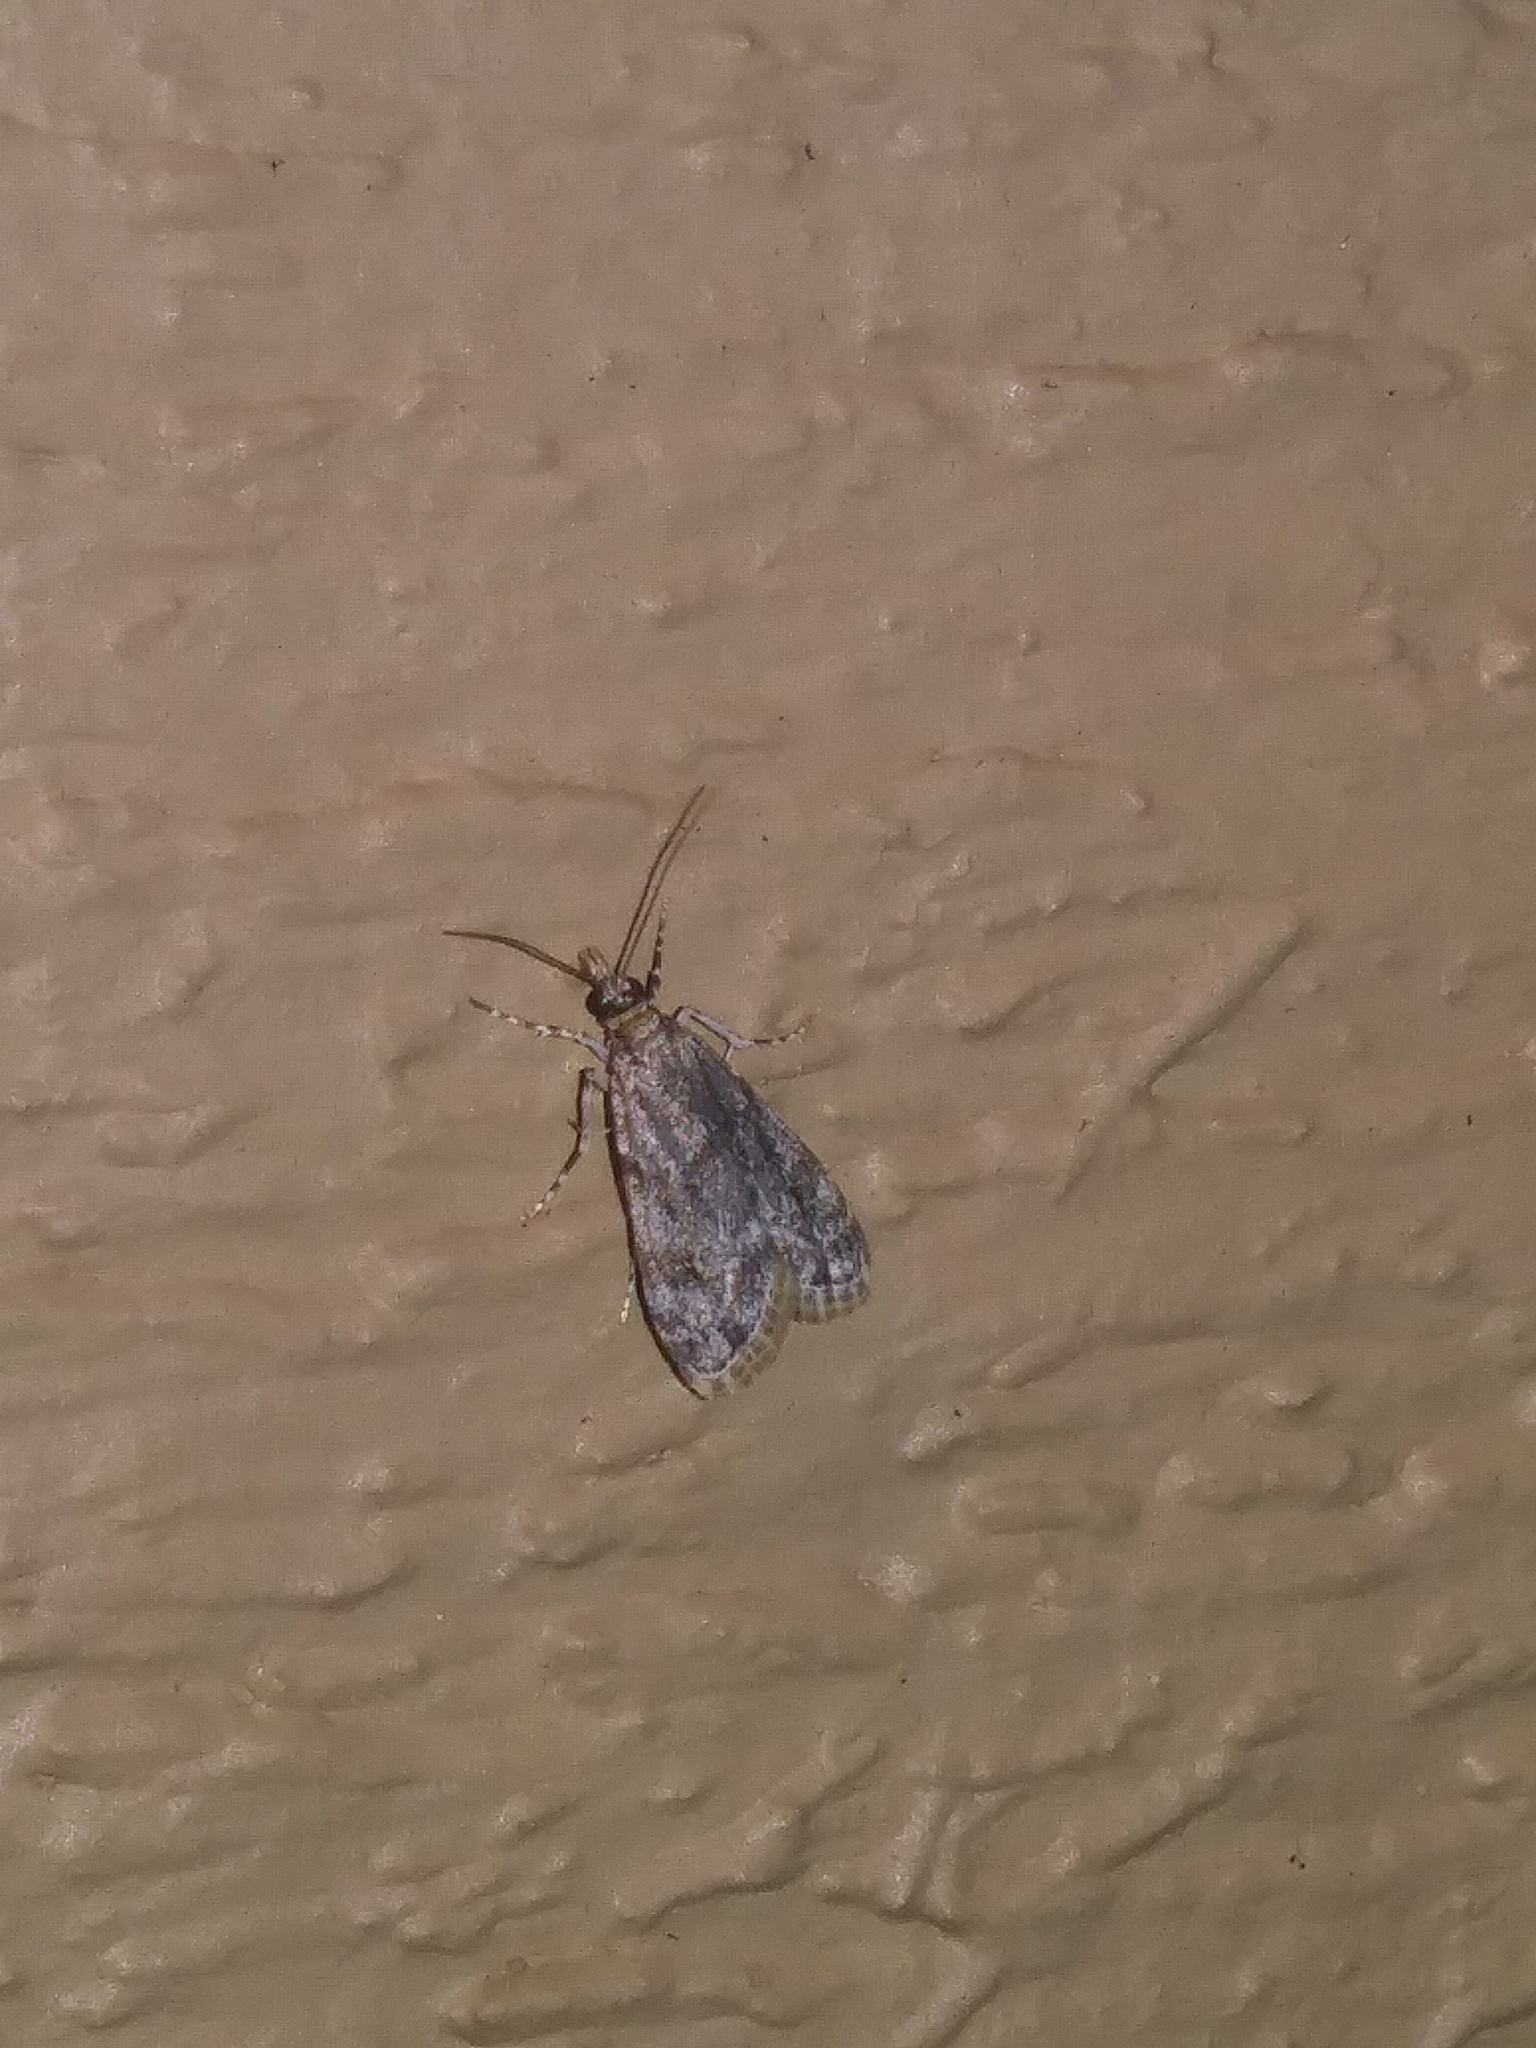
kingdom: Animalia
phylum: Arthropoda
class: Insecta
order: Lepidoptera
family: Crambidae
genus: Eudonia
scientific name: Eudonia heterosalis
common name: Mcdunnough's eudonia
